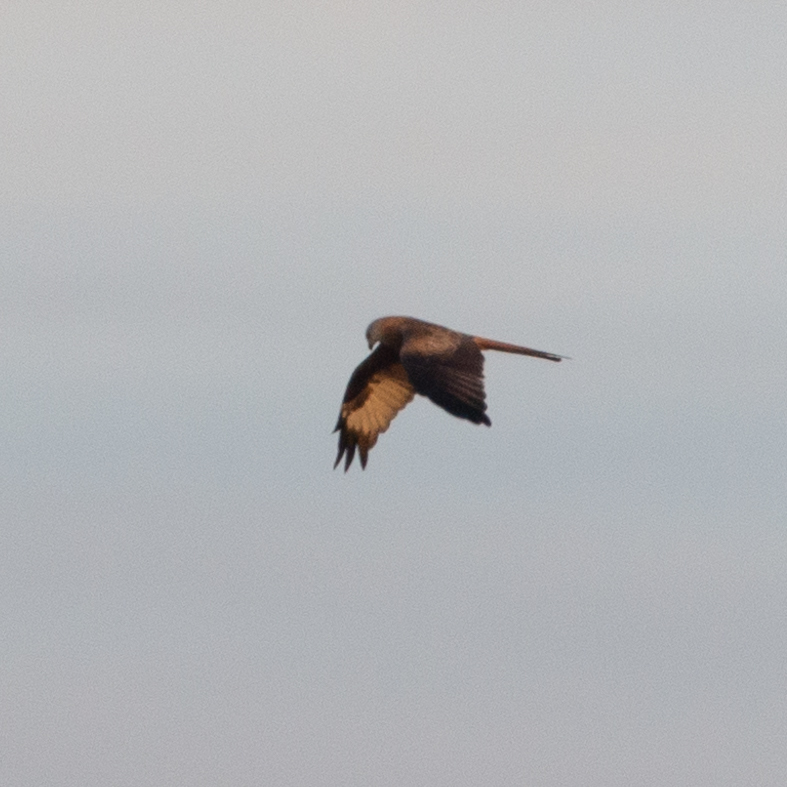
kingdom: Animalia
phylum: Chordata
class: Aves
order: Accipitriformes
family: Accipitridae
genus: Milvus
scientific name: Milvus milvus
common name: Red kite
